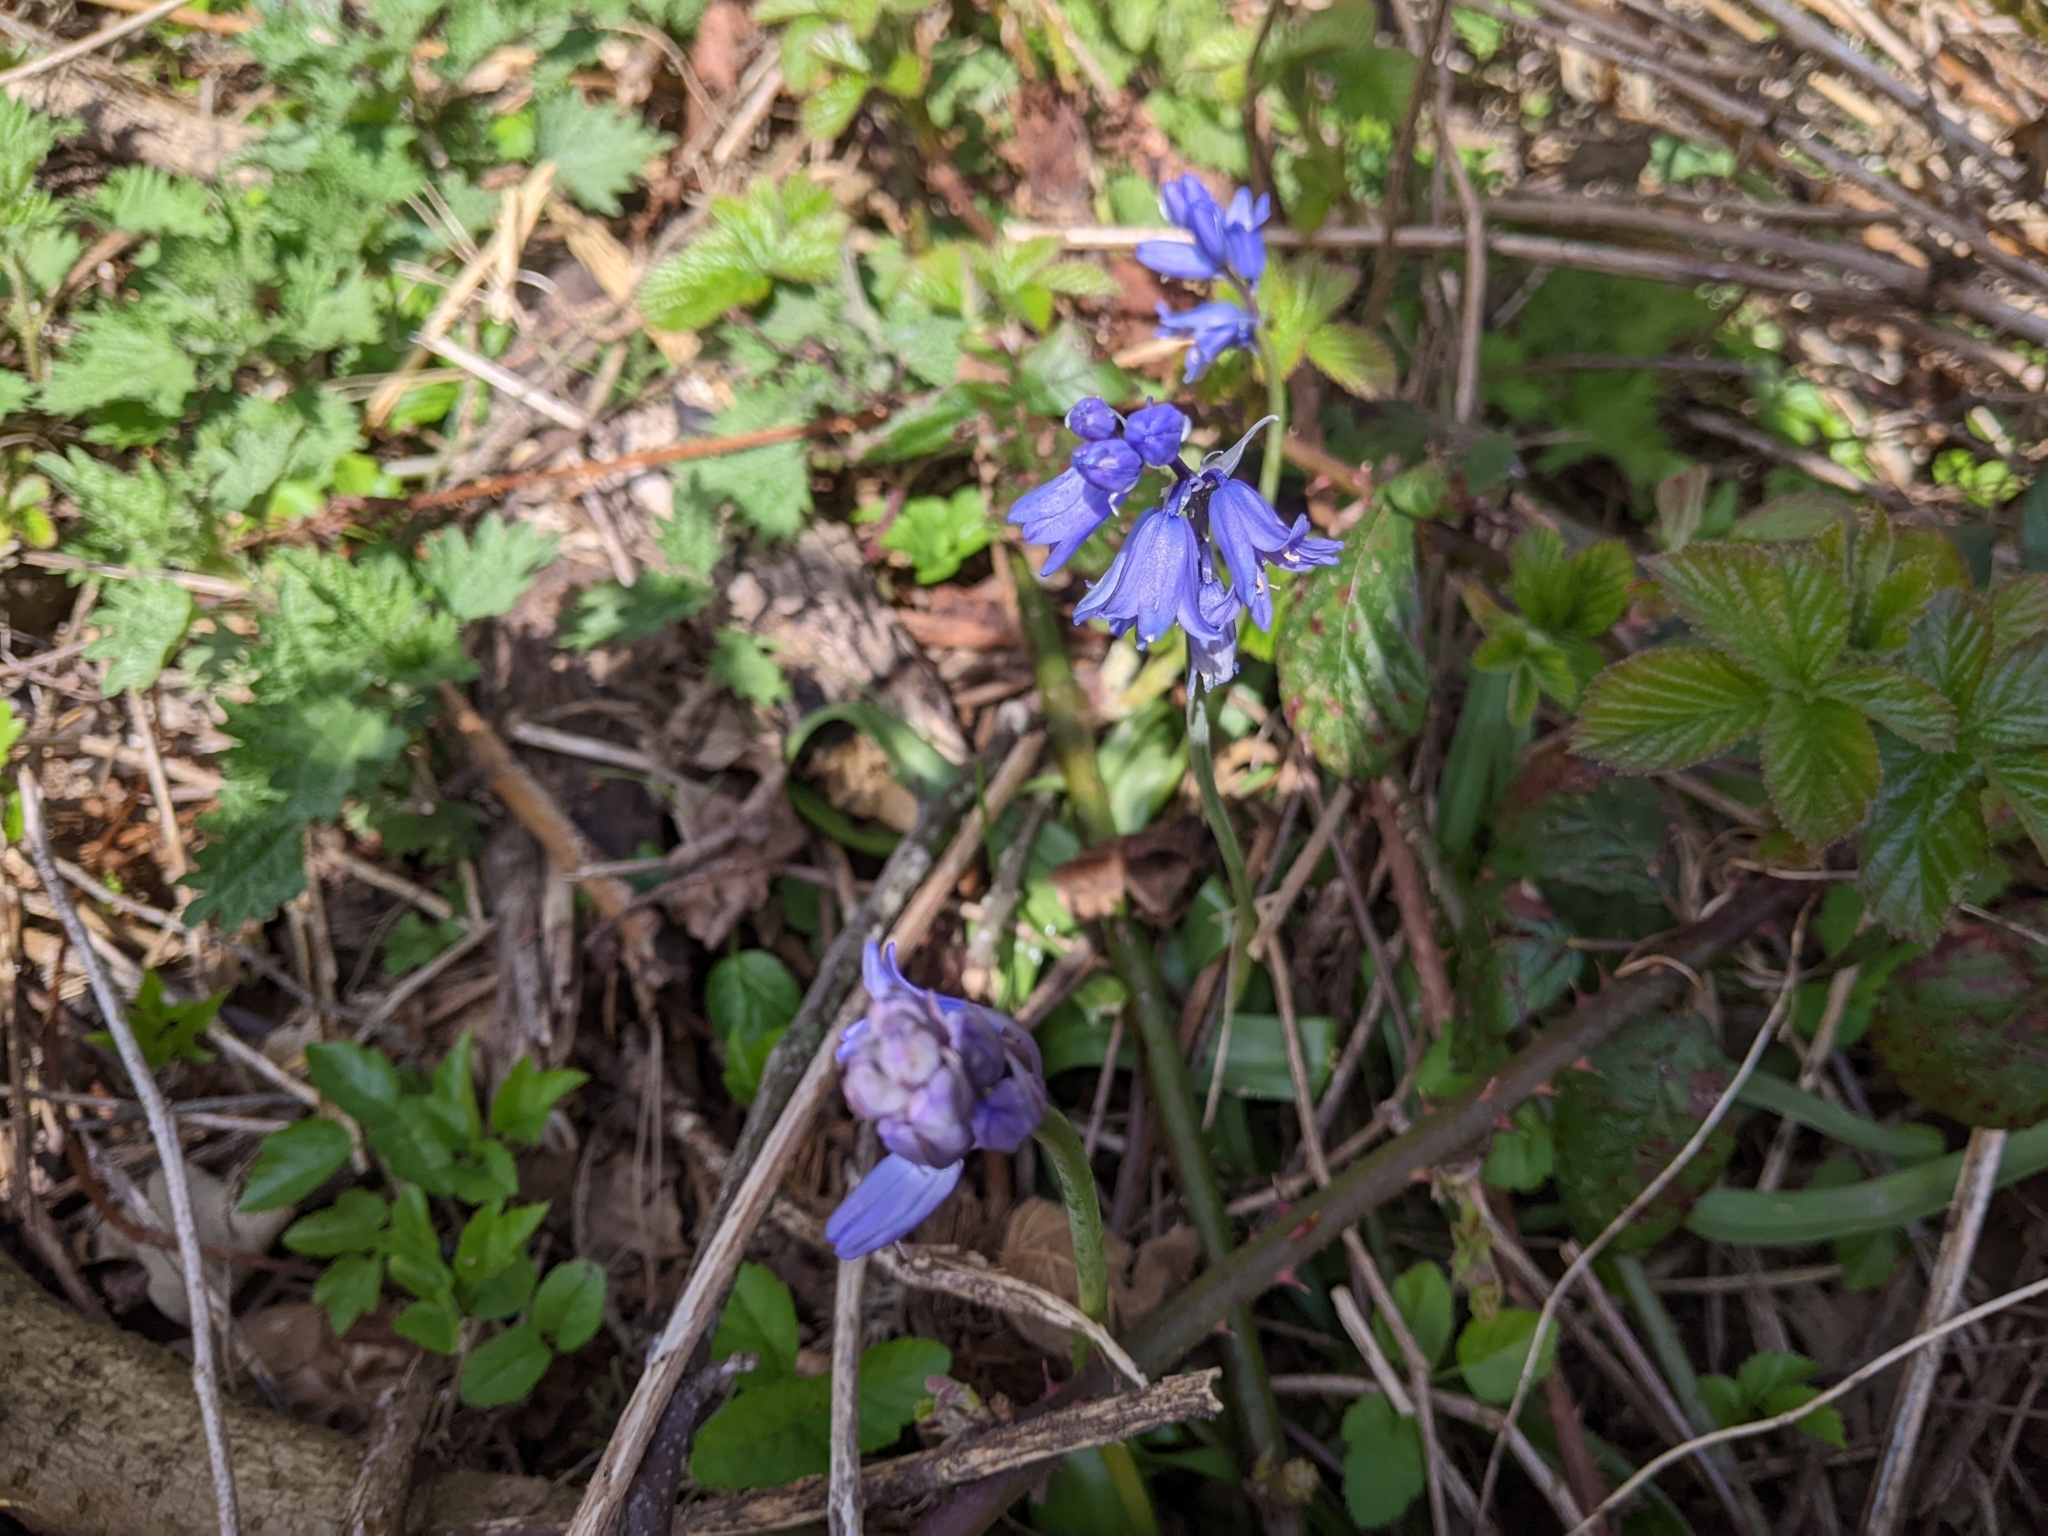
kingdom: Plantae
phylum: Tracheophyta
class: Liliopsida
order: Asparagales
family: Asparagaceae
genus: Hyacinthoides
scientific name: Hyacinthoides massartiana
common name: Hyacinthoides
